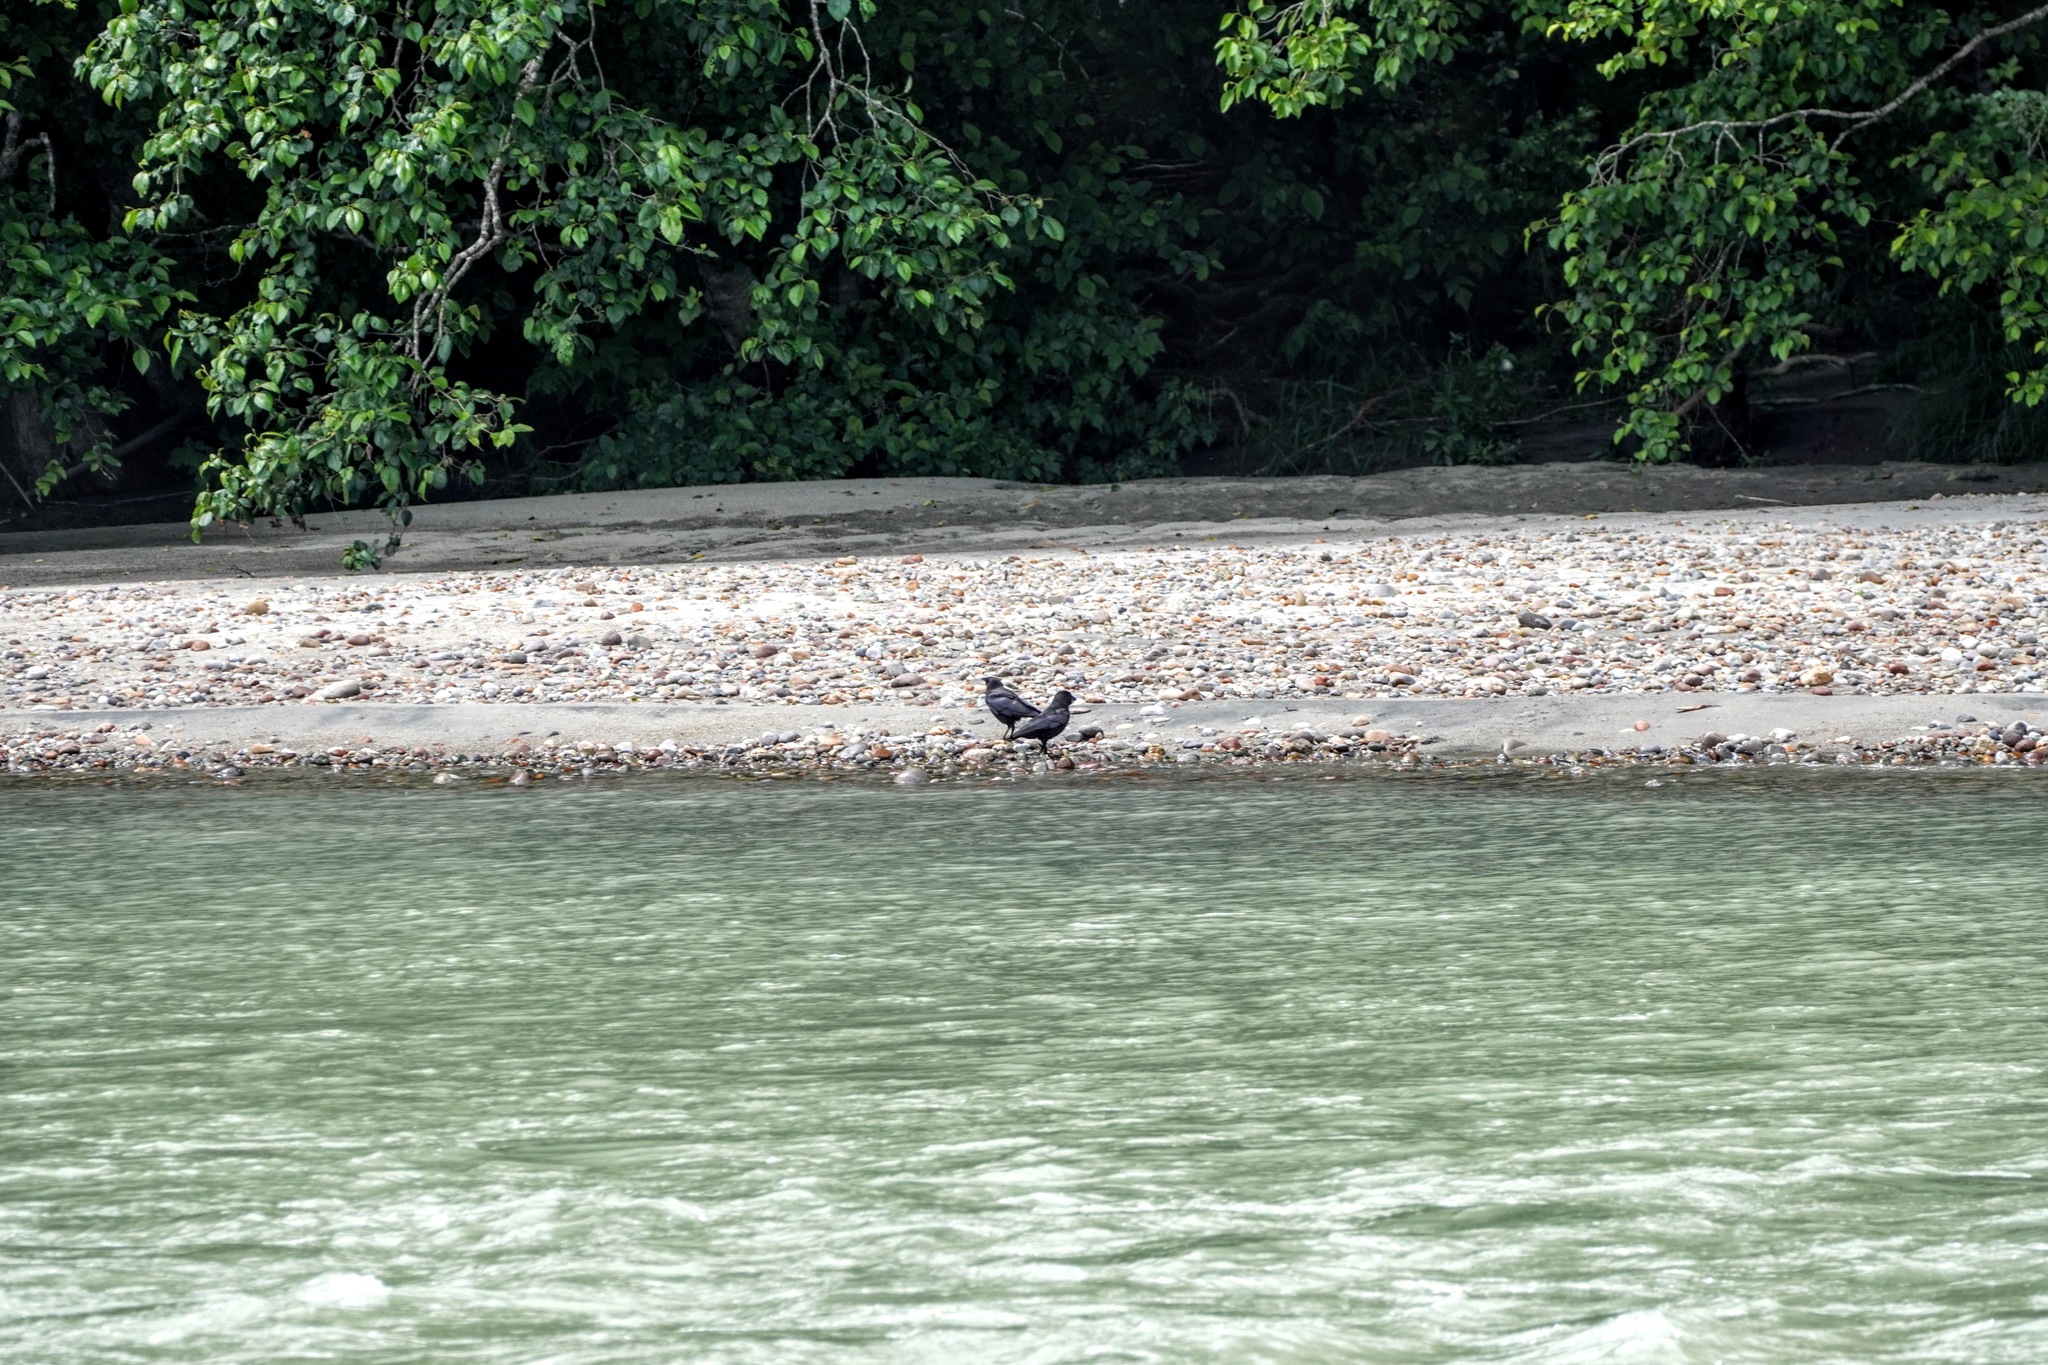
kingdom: Animalia
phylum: Chordata
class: Aves
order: Passeriformes
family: Corvidae
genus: Corvus
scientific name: Corvus brachyrhynchos
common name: American crow
